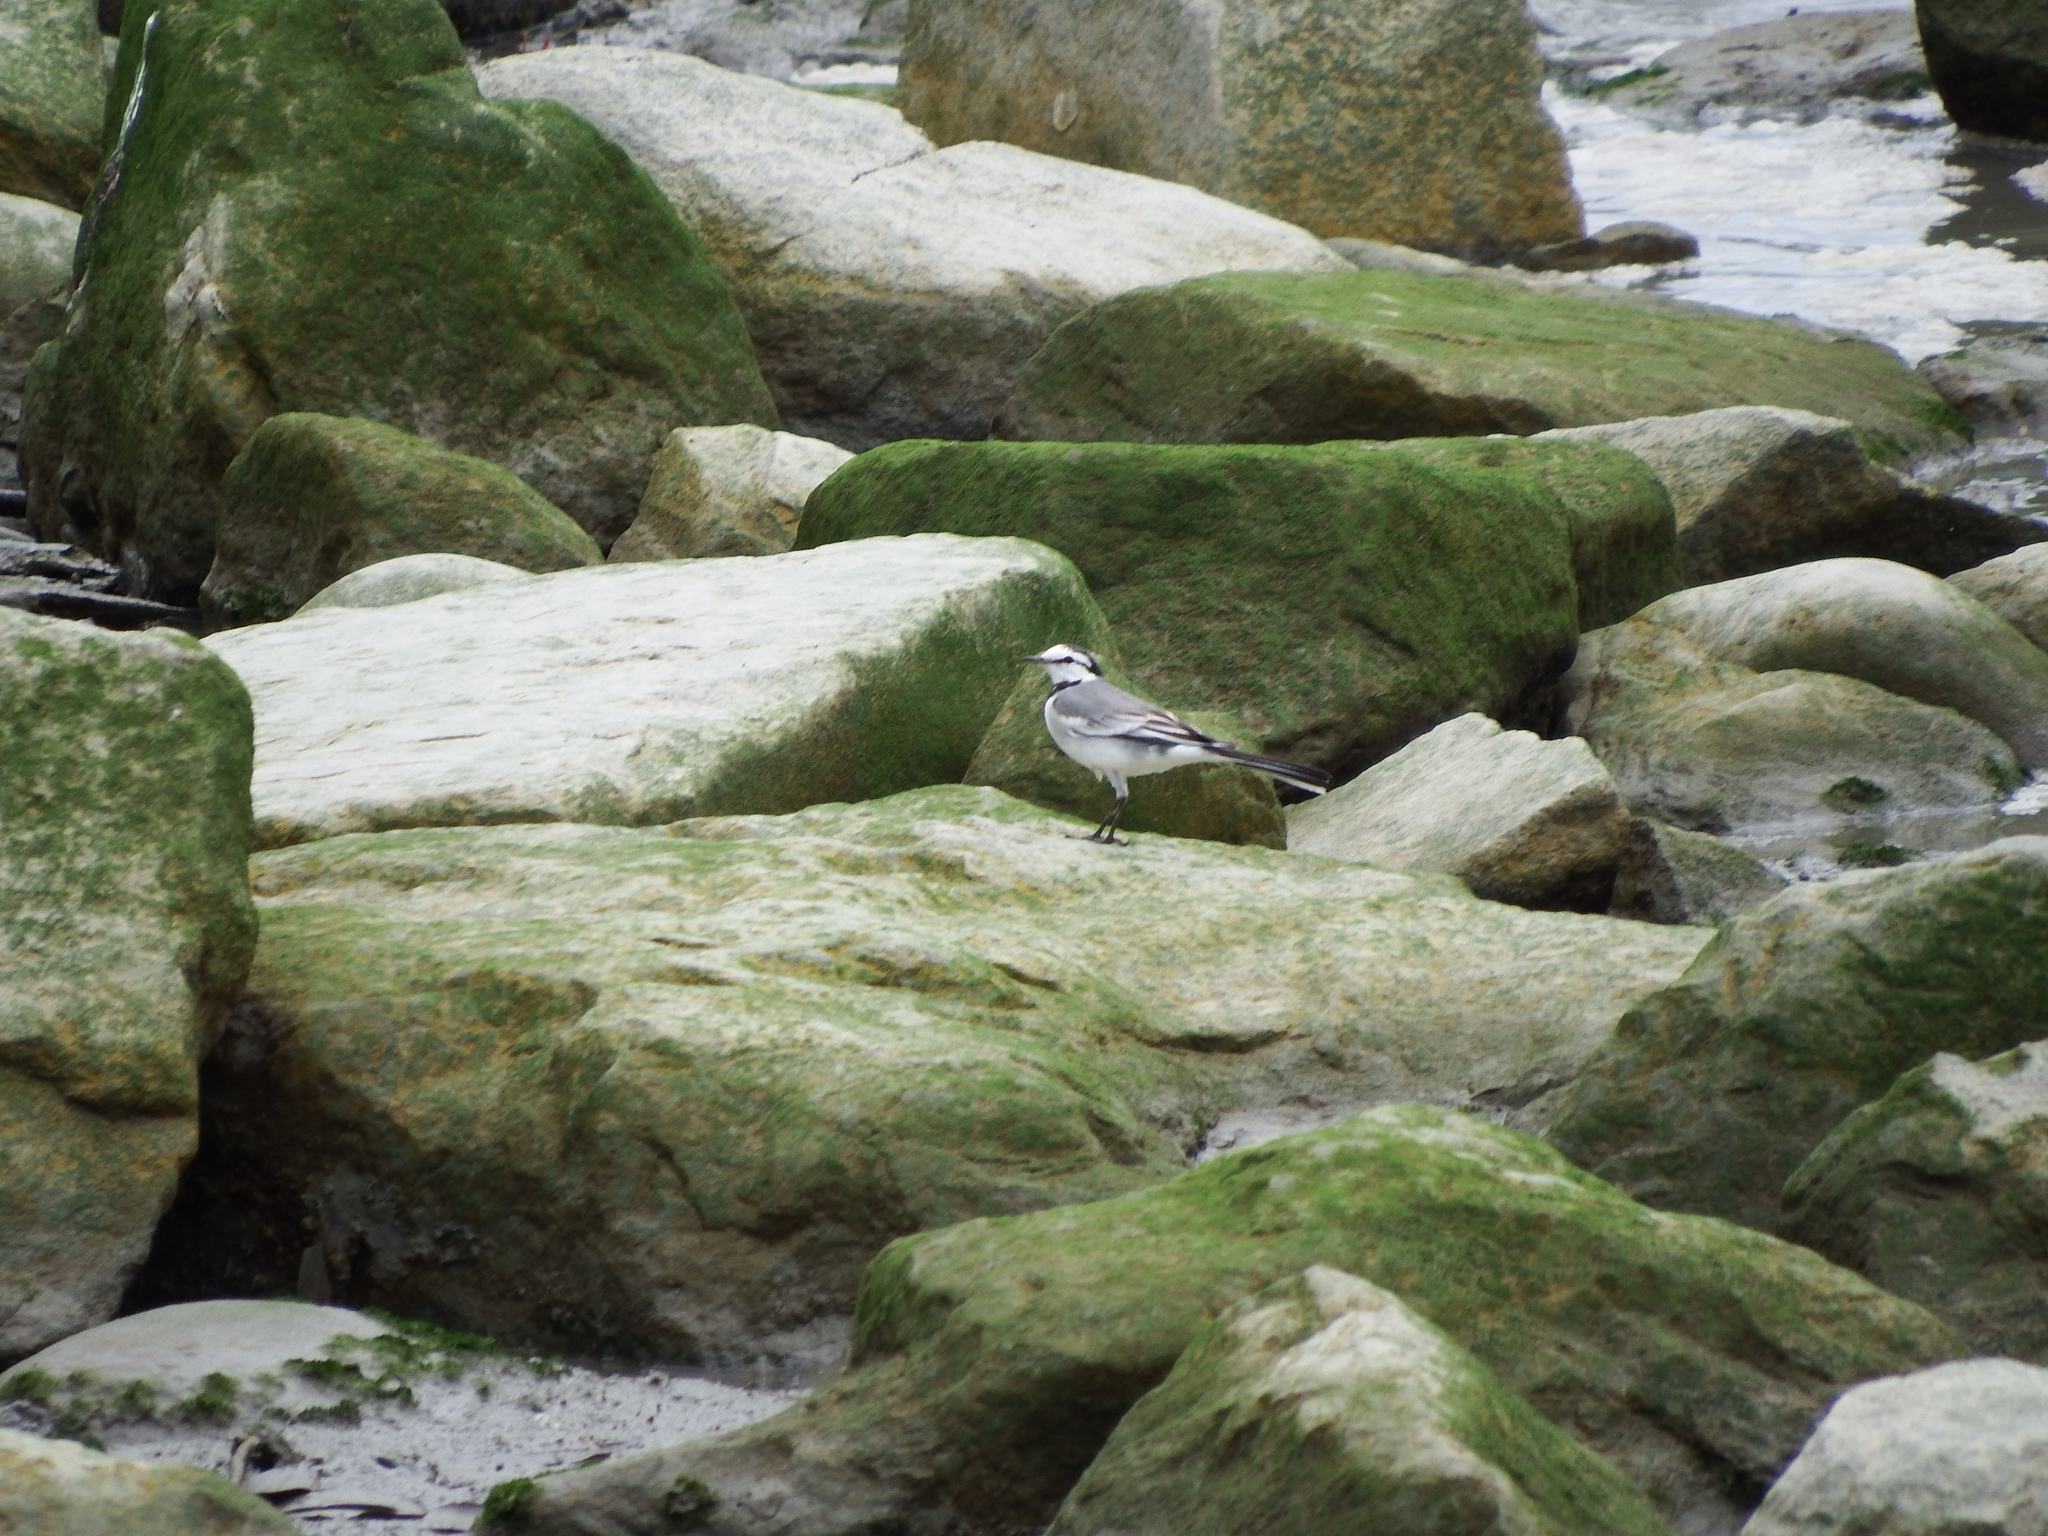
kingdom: Animalia
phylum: Chordata
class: Aves
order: Passeriformes
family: Motacillidae
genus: Motacilla
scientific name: Motacilla alba
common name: White wagtail
